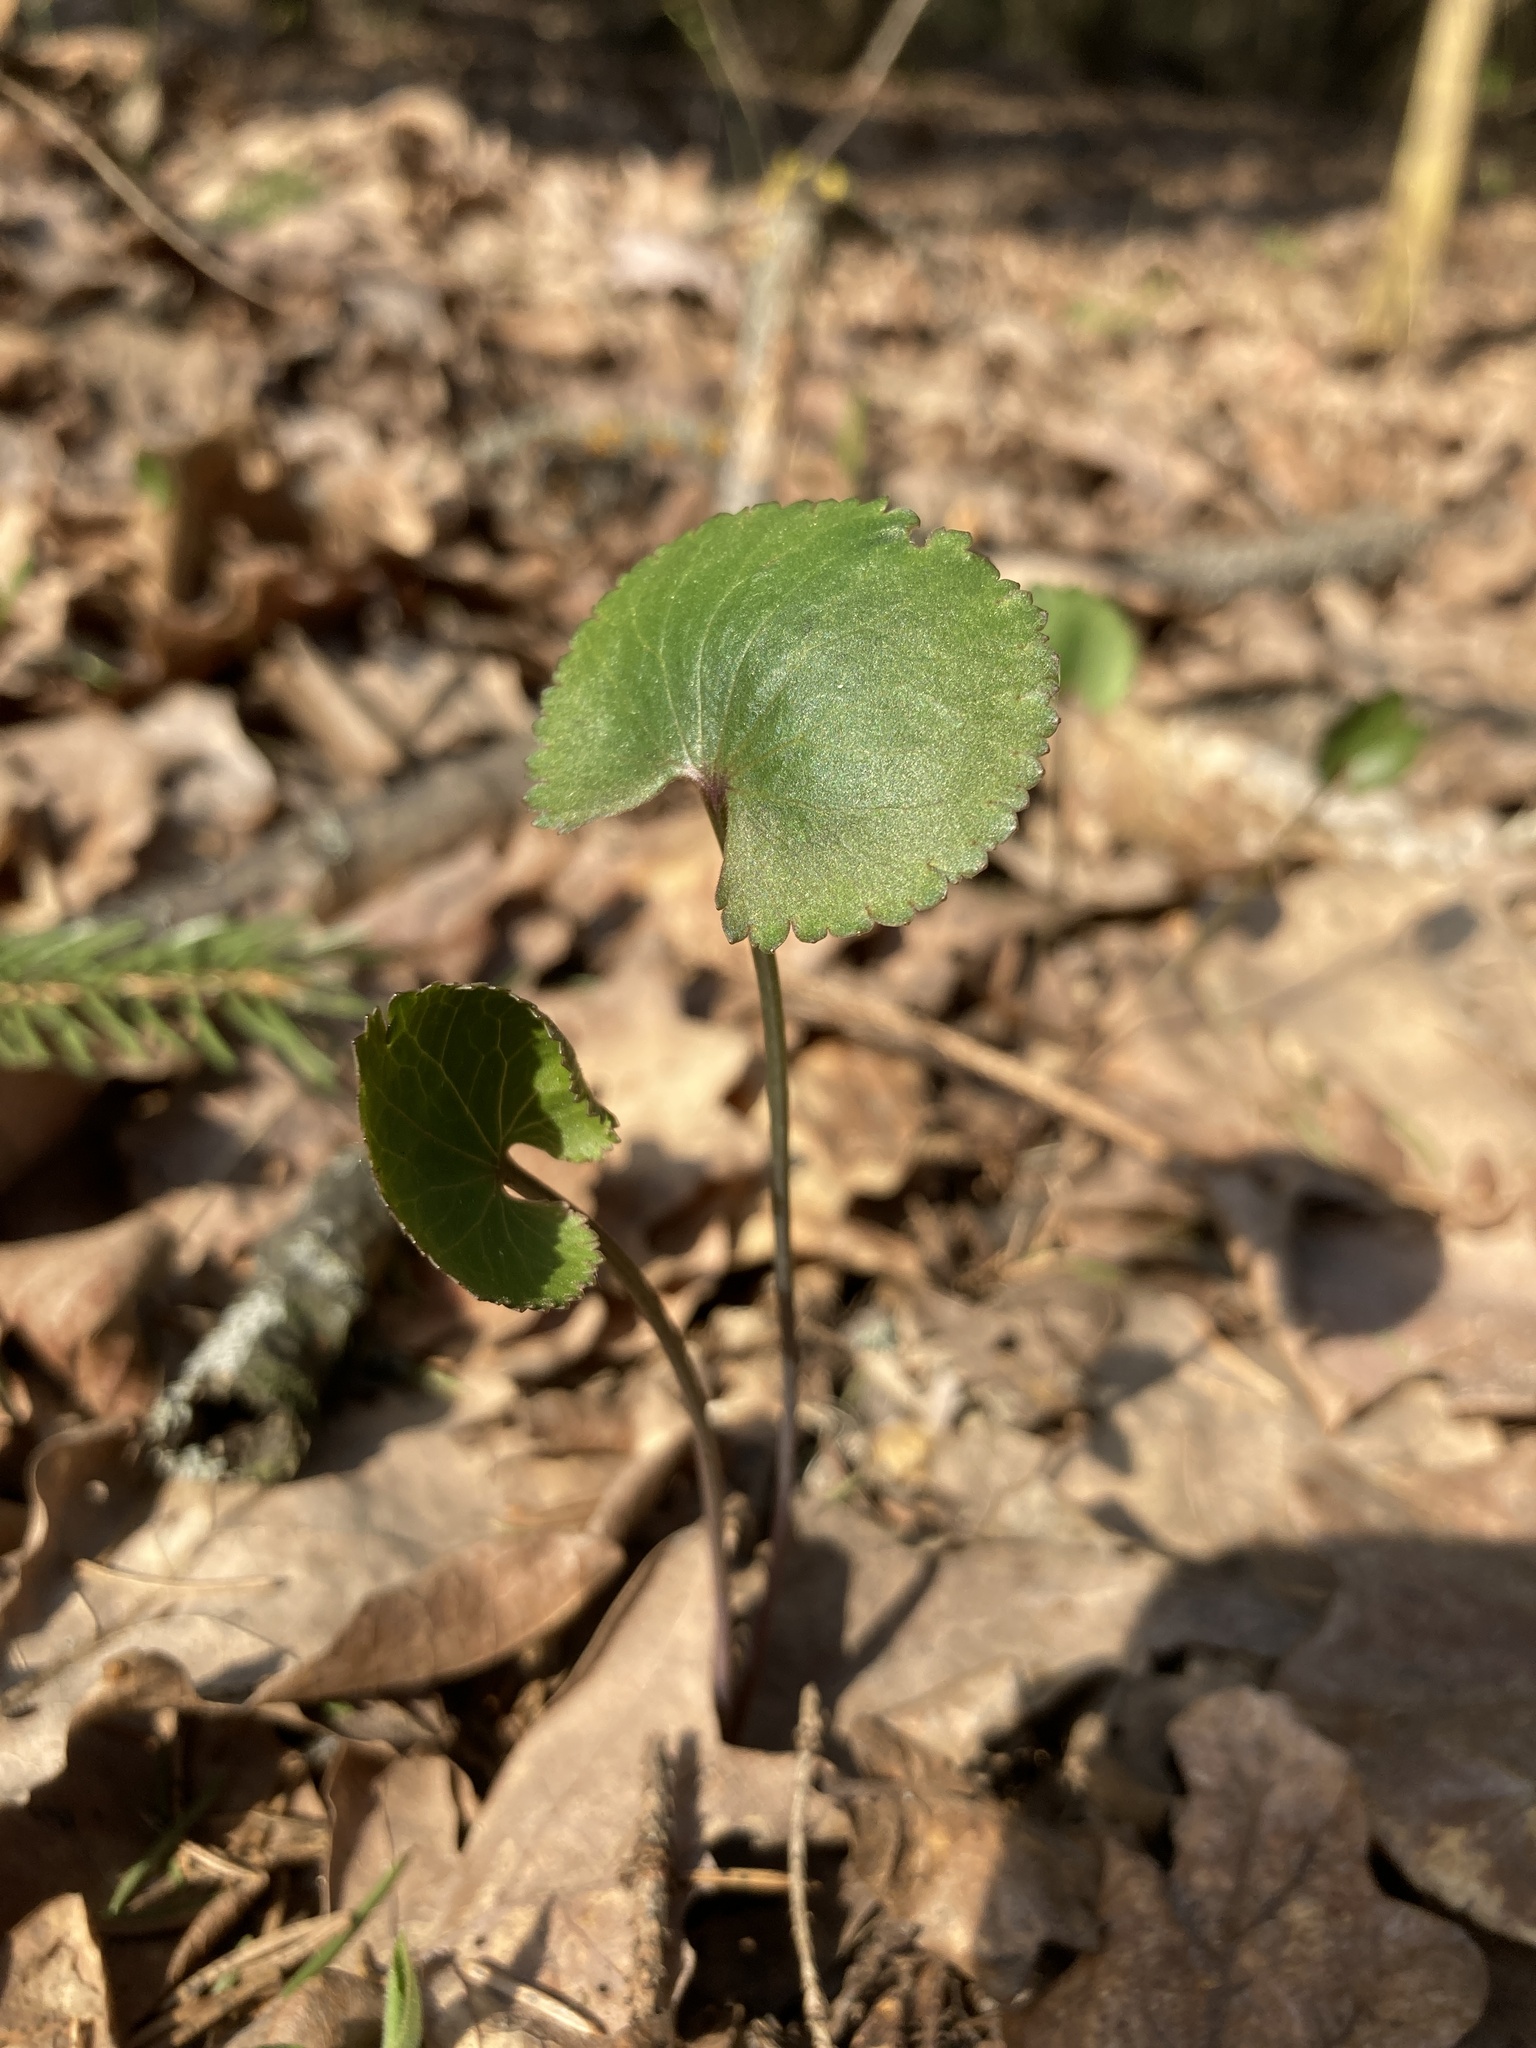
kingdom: Plantae
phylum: Tracheophyta
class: Magnoliopsida
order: Ranunculales
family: Ranunculaceae
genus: Ranunculus
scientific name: Ranunculus cassubicus
